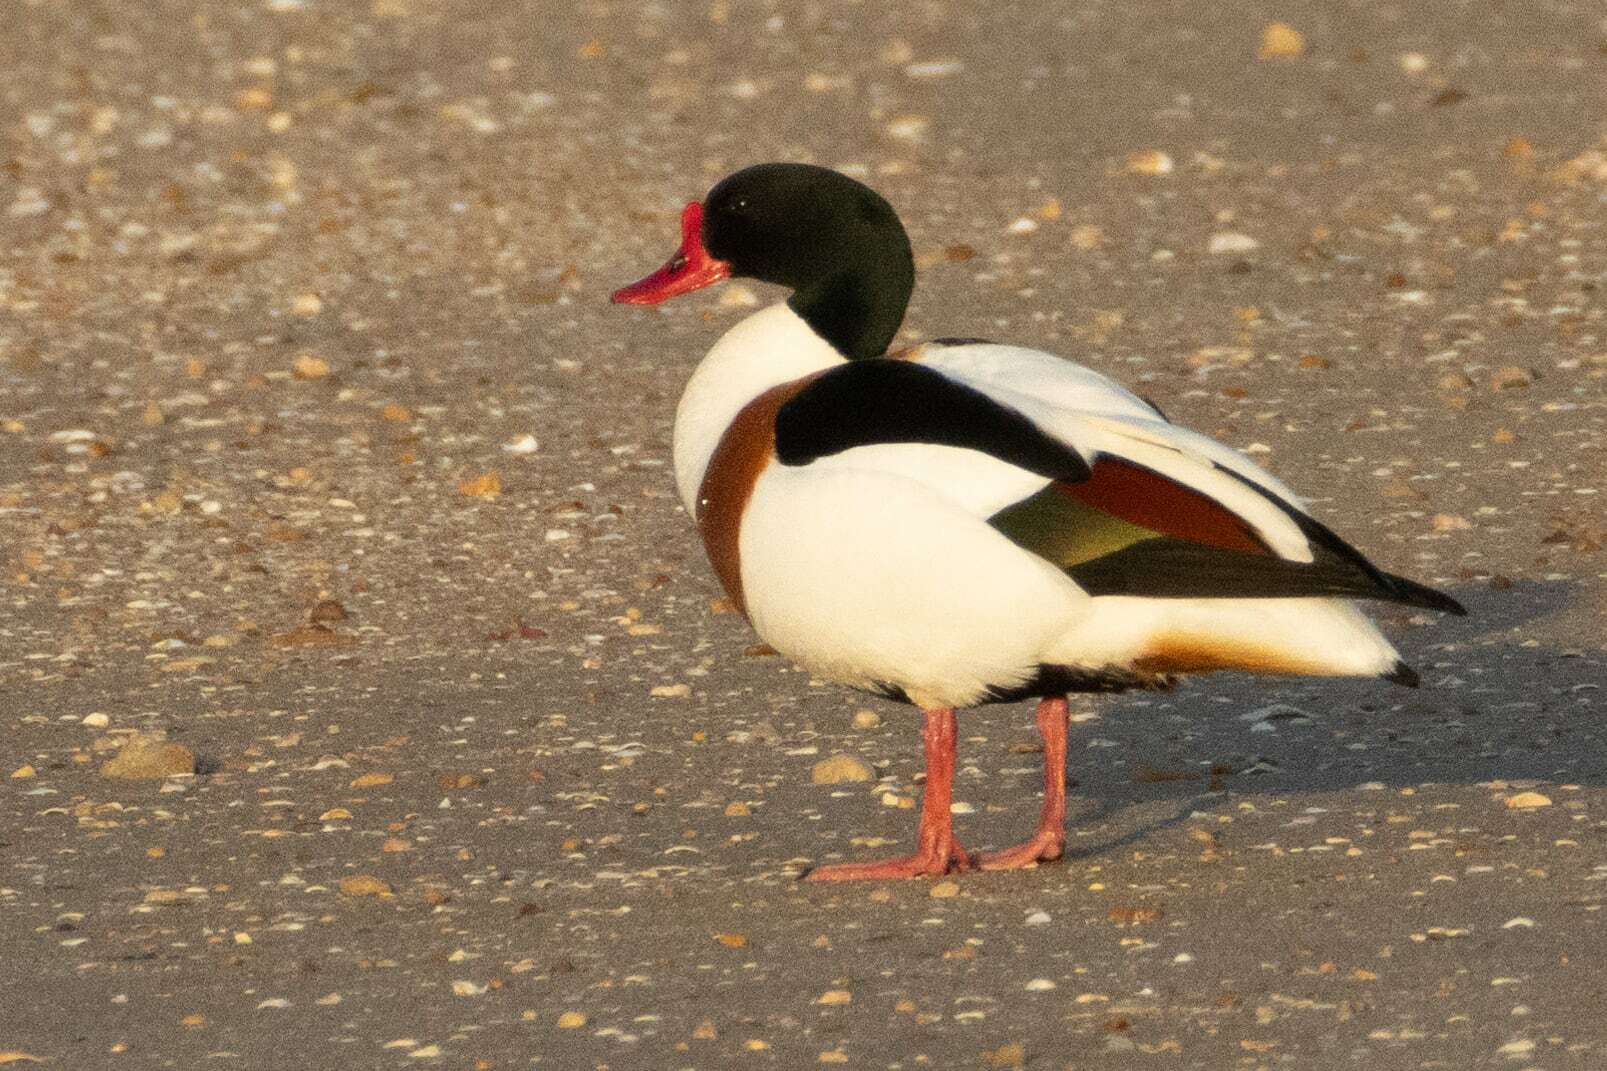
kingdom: Animalia
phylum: Chordata
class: Aves
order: Anseriformes
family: Anatidae
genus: Tadorna
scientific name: Tadorna tadorna
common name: Common shelduck
